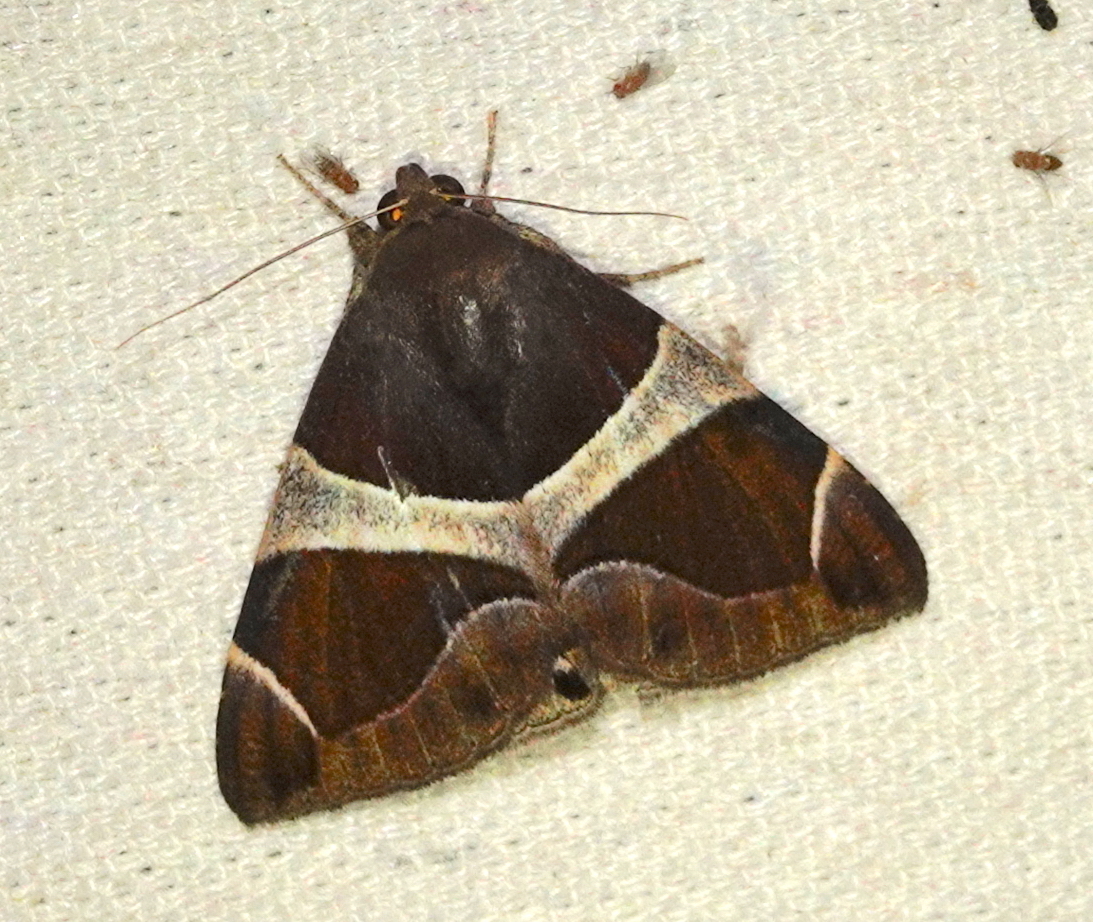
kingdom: Animalia
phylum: Arthropoda
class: Insecta
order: Lepidoptera
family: Erebidae
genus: Bastilla
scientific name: Bastilla crameri
